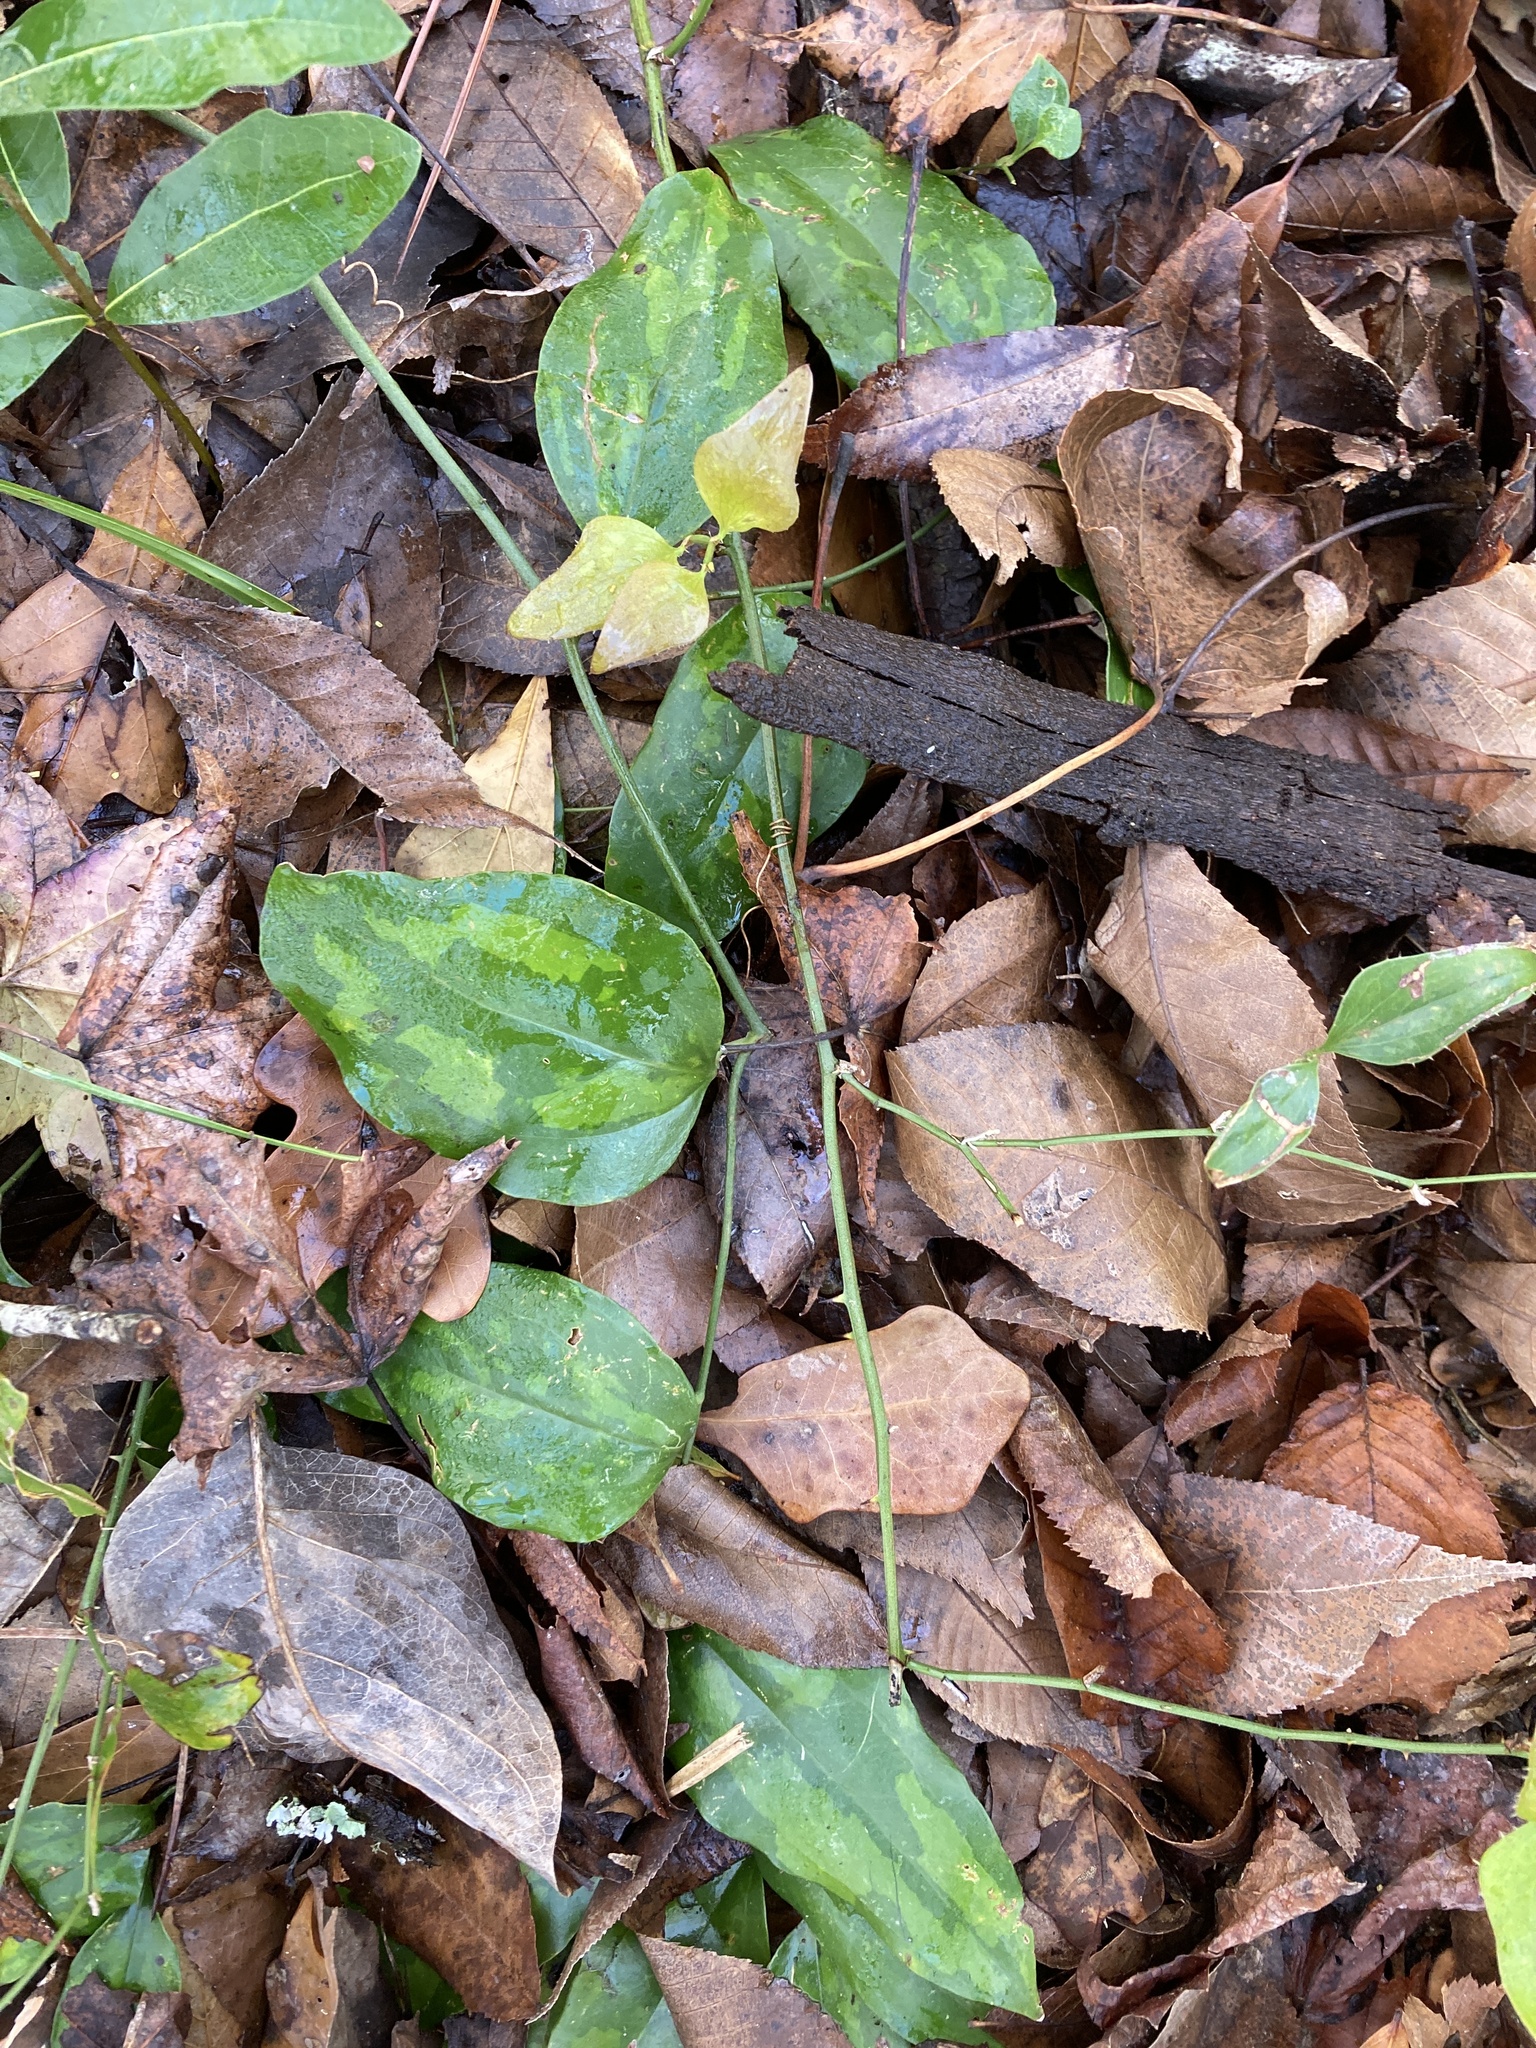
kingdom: Plantae
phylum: Tracheophyta
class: Liliopsida
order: Liliales
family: Smilacaceae
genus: Smilax
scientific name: Smilax bona-nox
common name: Catbrier
